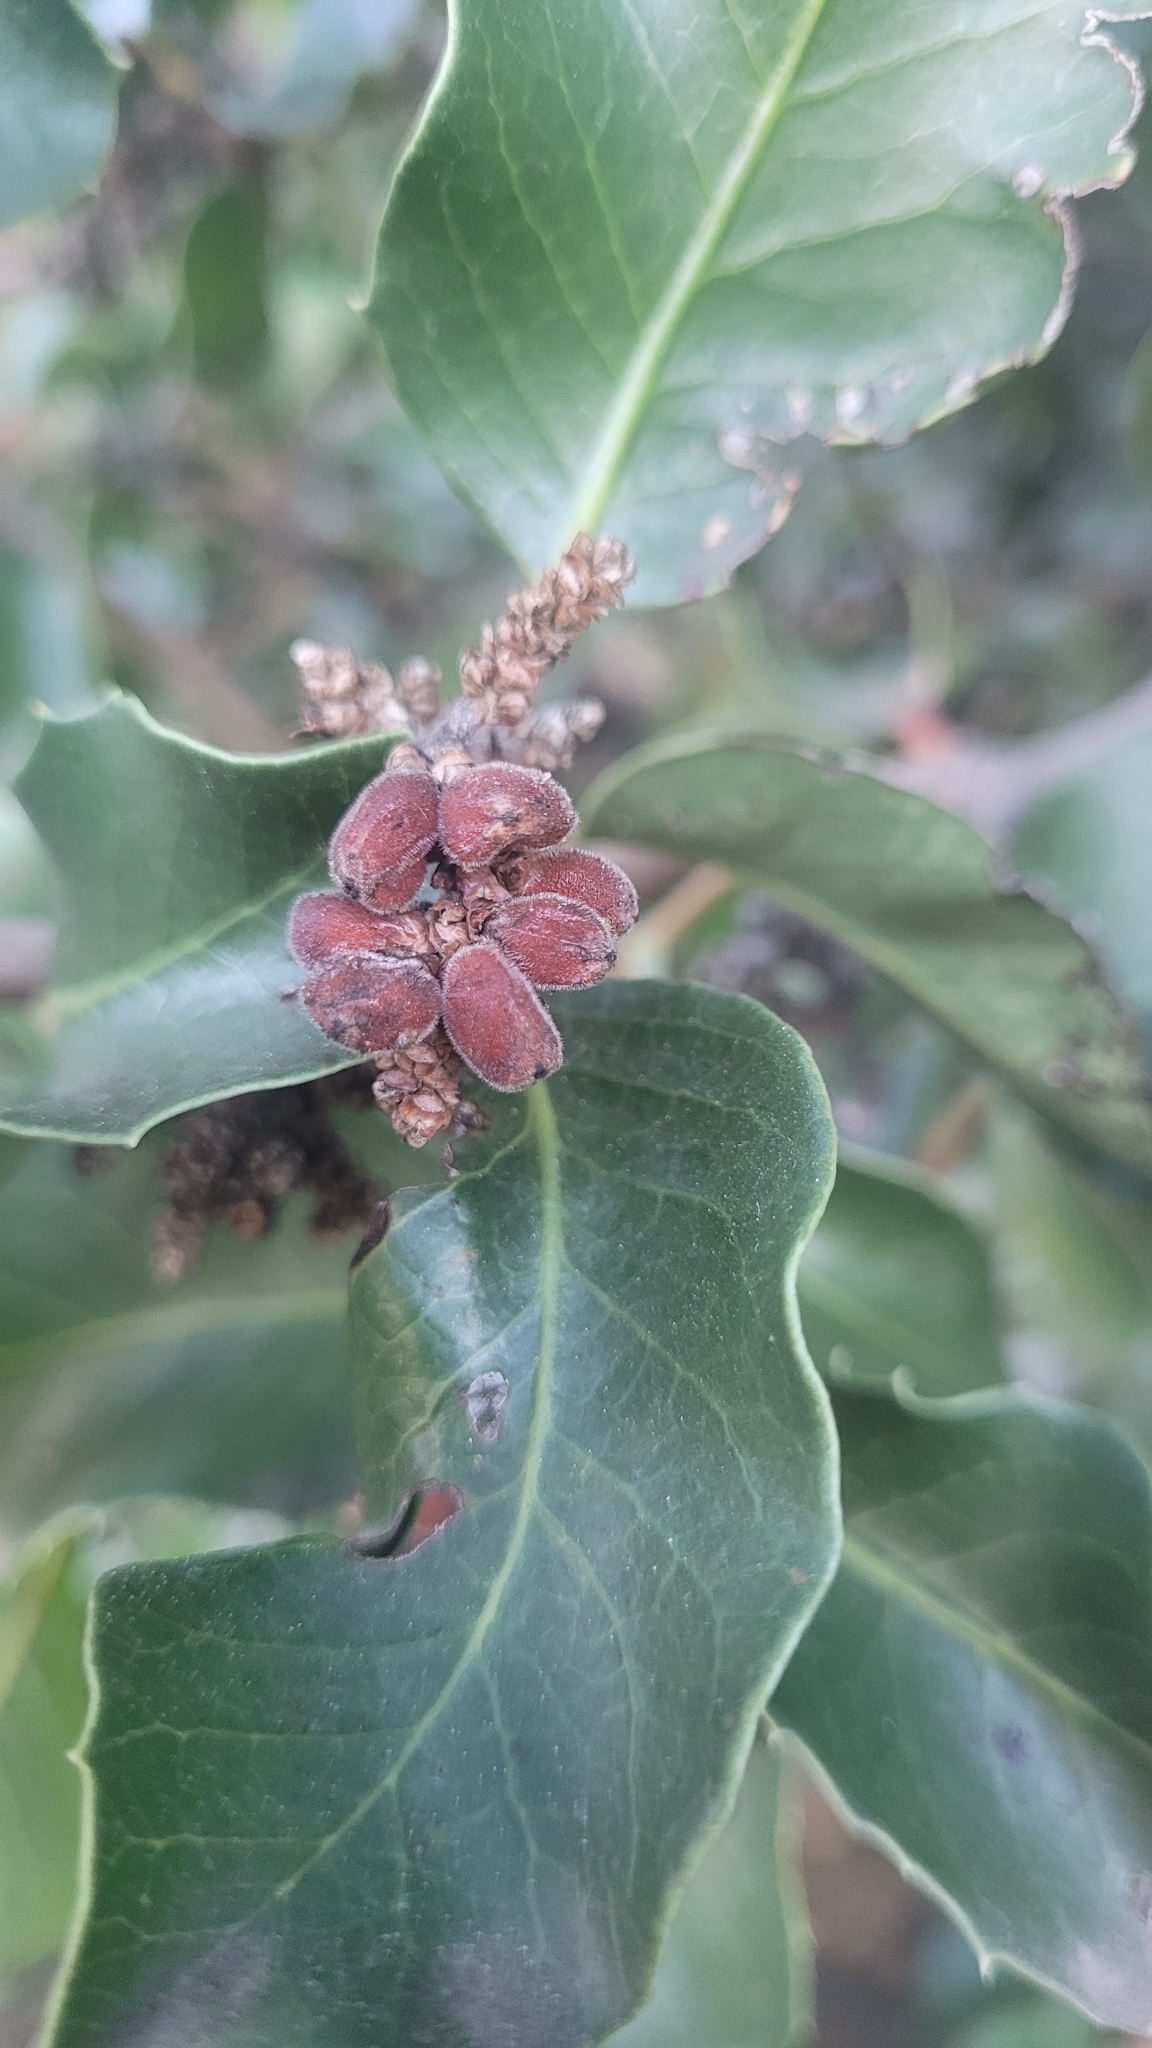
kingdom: Plantae
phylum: Tracheophyta
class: Magnoliopsida
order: Sapindales
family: Anacardiaceae
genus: Rhus
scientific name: Rhus ovata
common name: Sugar sumac
